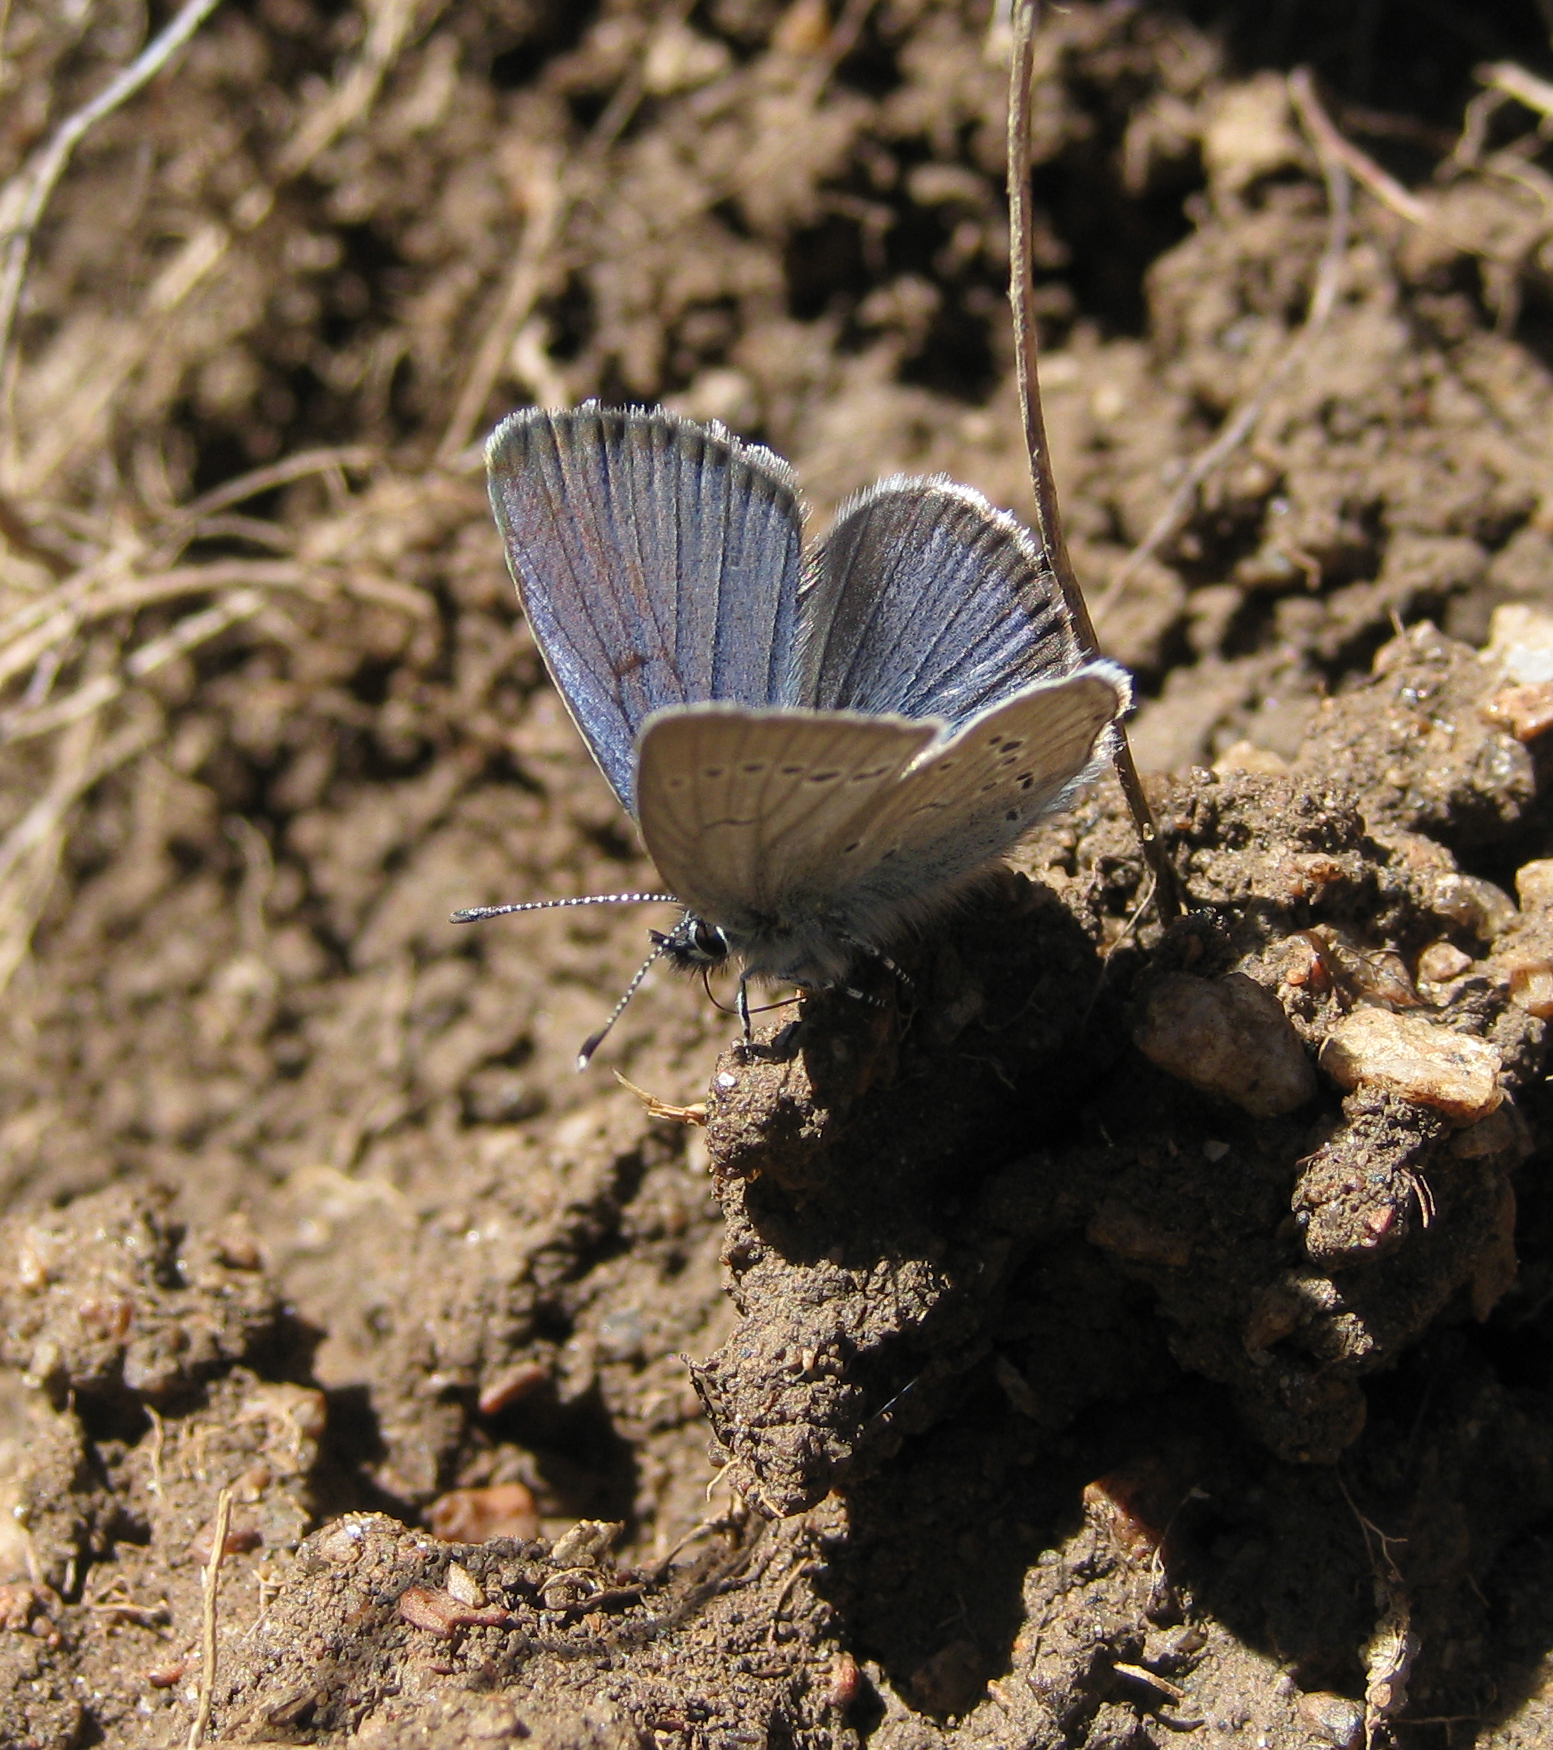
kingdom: Animalia
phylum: Arthropoda
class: Insecta
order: Lepidoptera
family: Lycaenidae
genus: Cupido
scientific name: Cupido buddhistus
